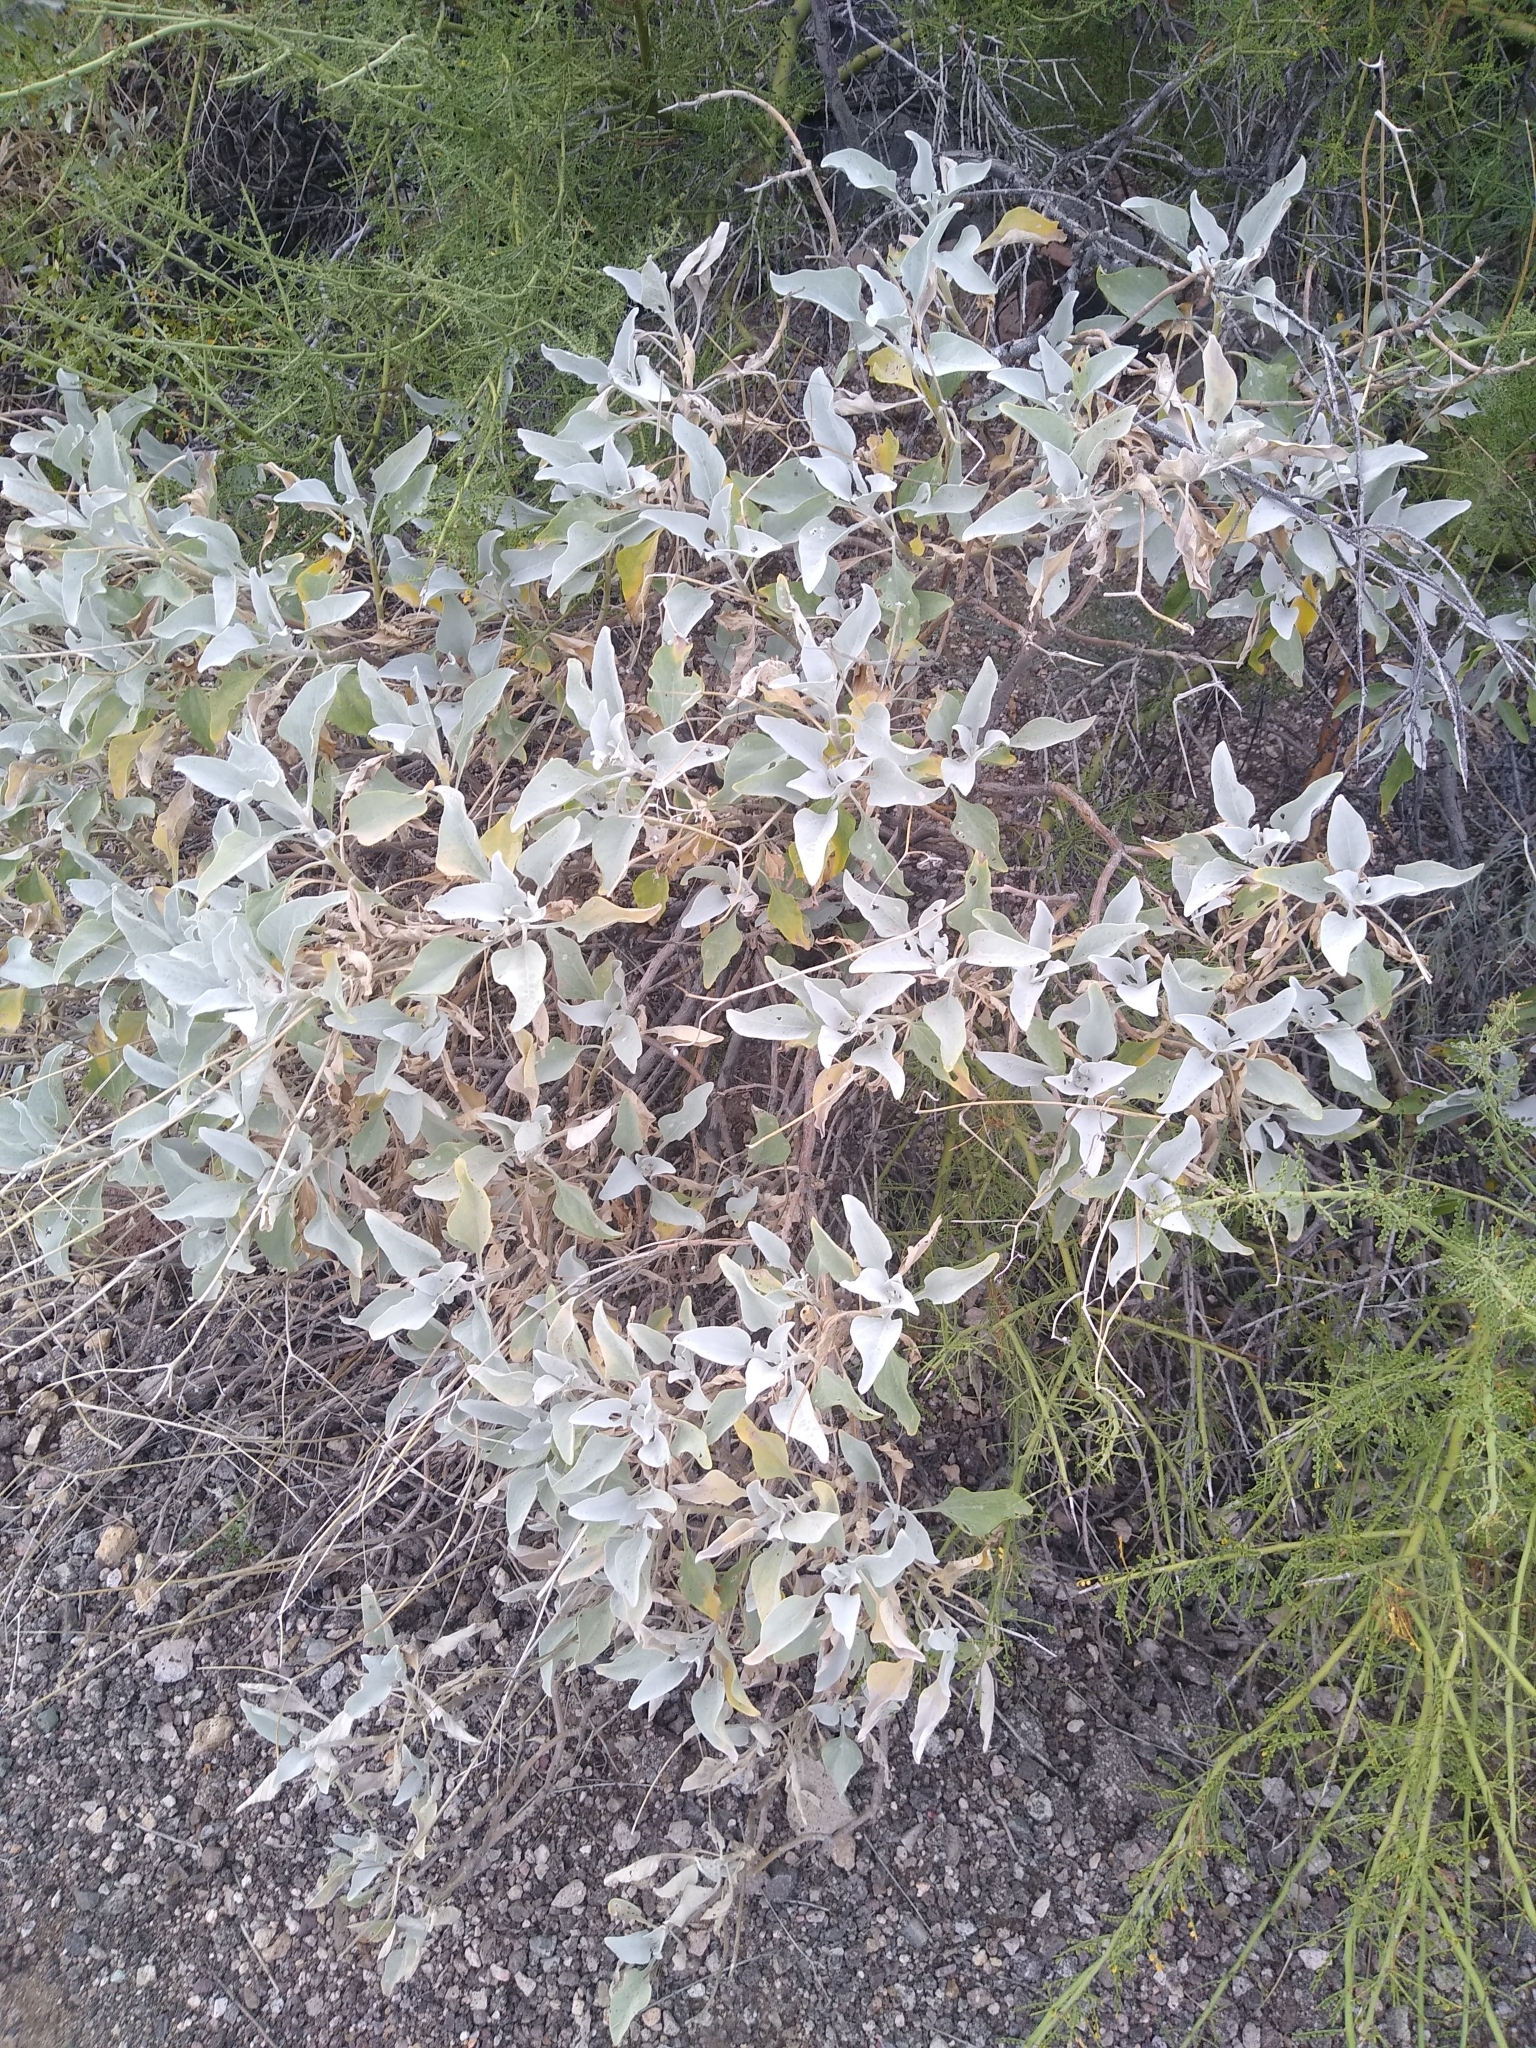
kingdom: Plantae
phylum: Tracheophyta
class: Magnoliopsida
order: Asterales
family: Asteraceae
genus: Encelia
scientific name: Encelia farinosa
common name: Brittlebush
